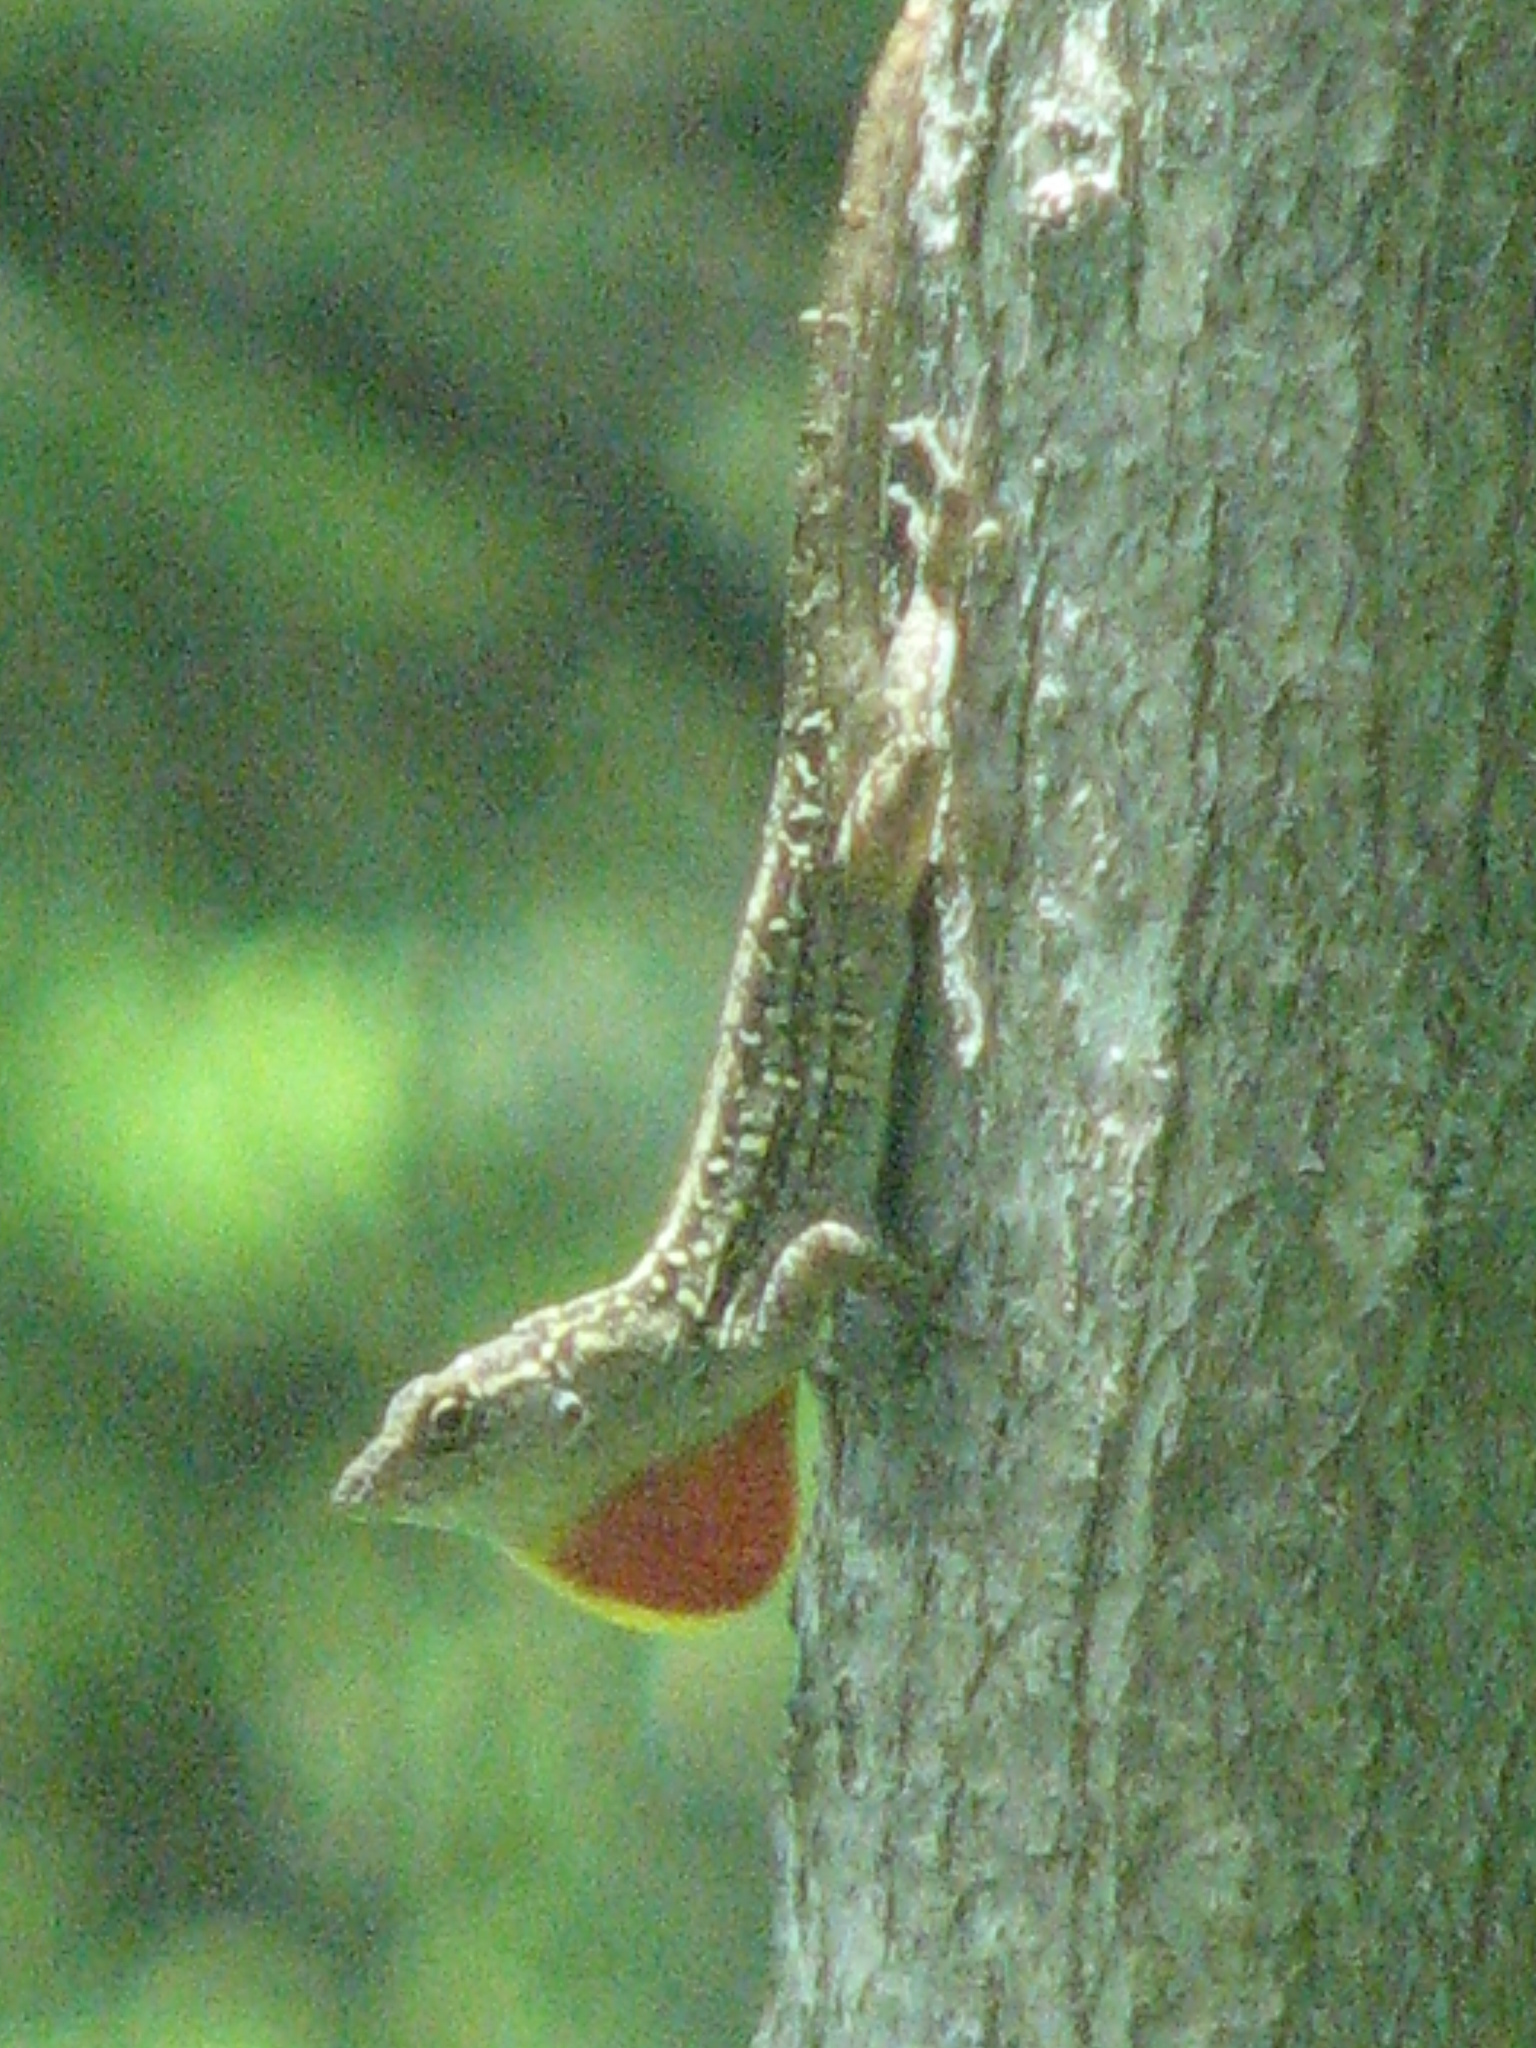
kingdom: Animalia
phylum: Chordata
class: Squamata
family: Dactyloidae
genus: Anolis
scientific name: Anolis sagrei
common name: Brown anole
